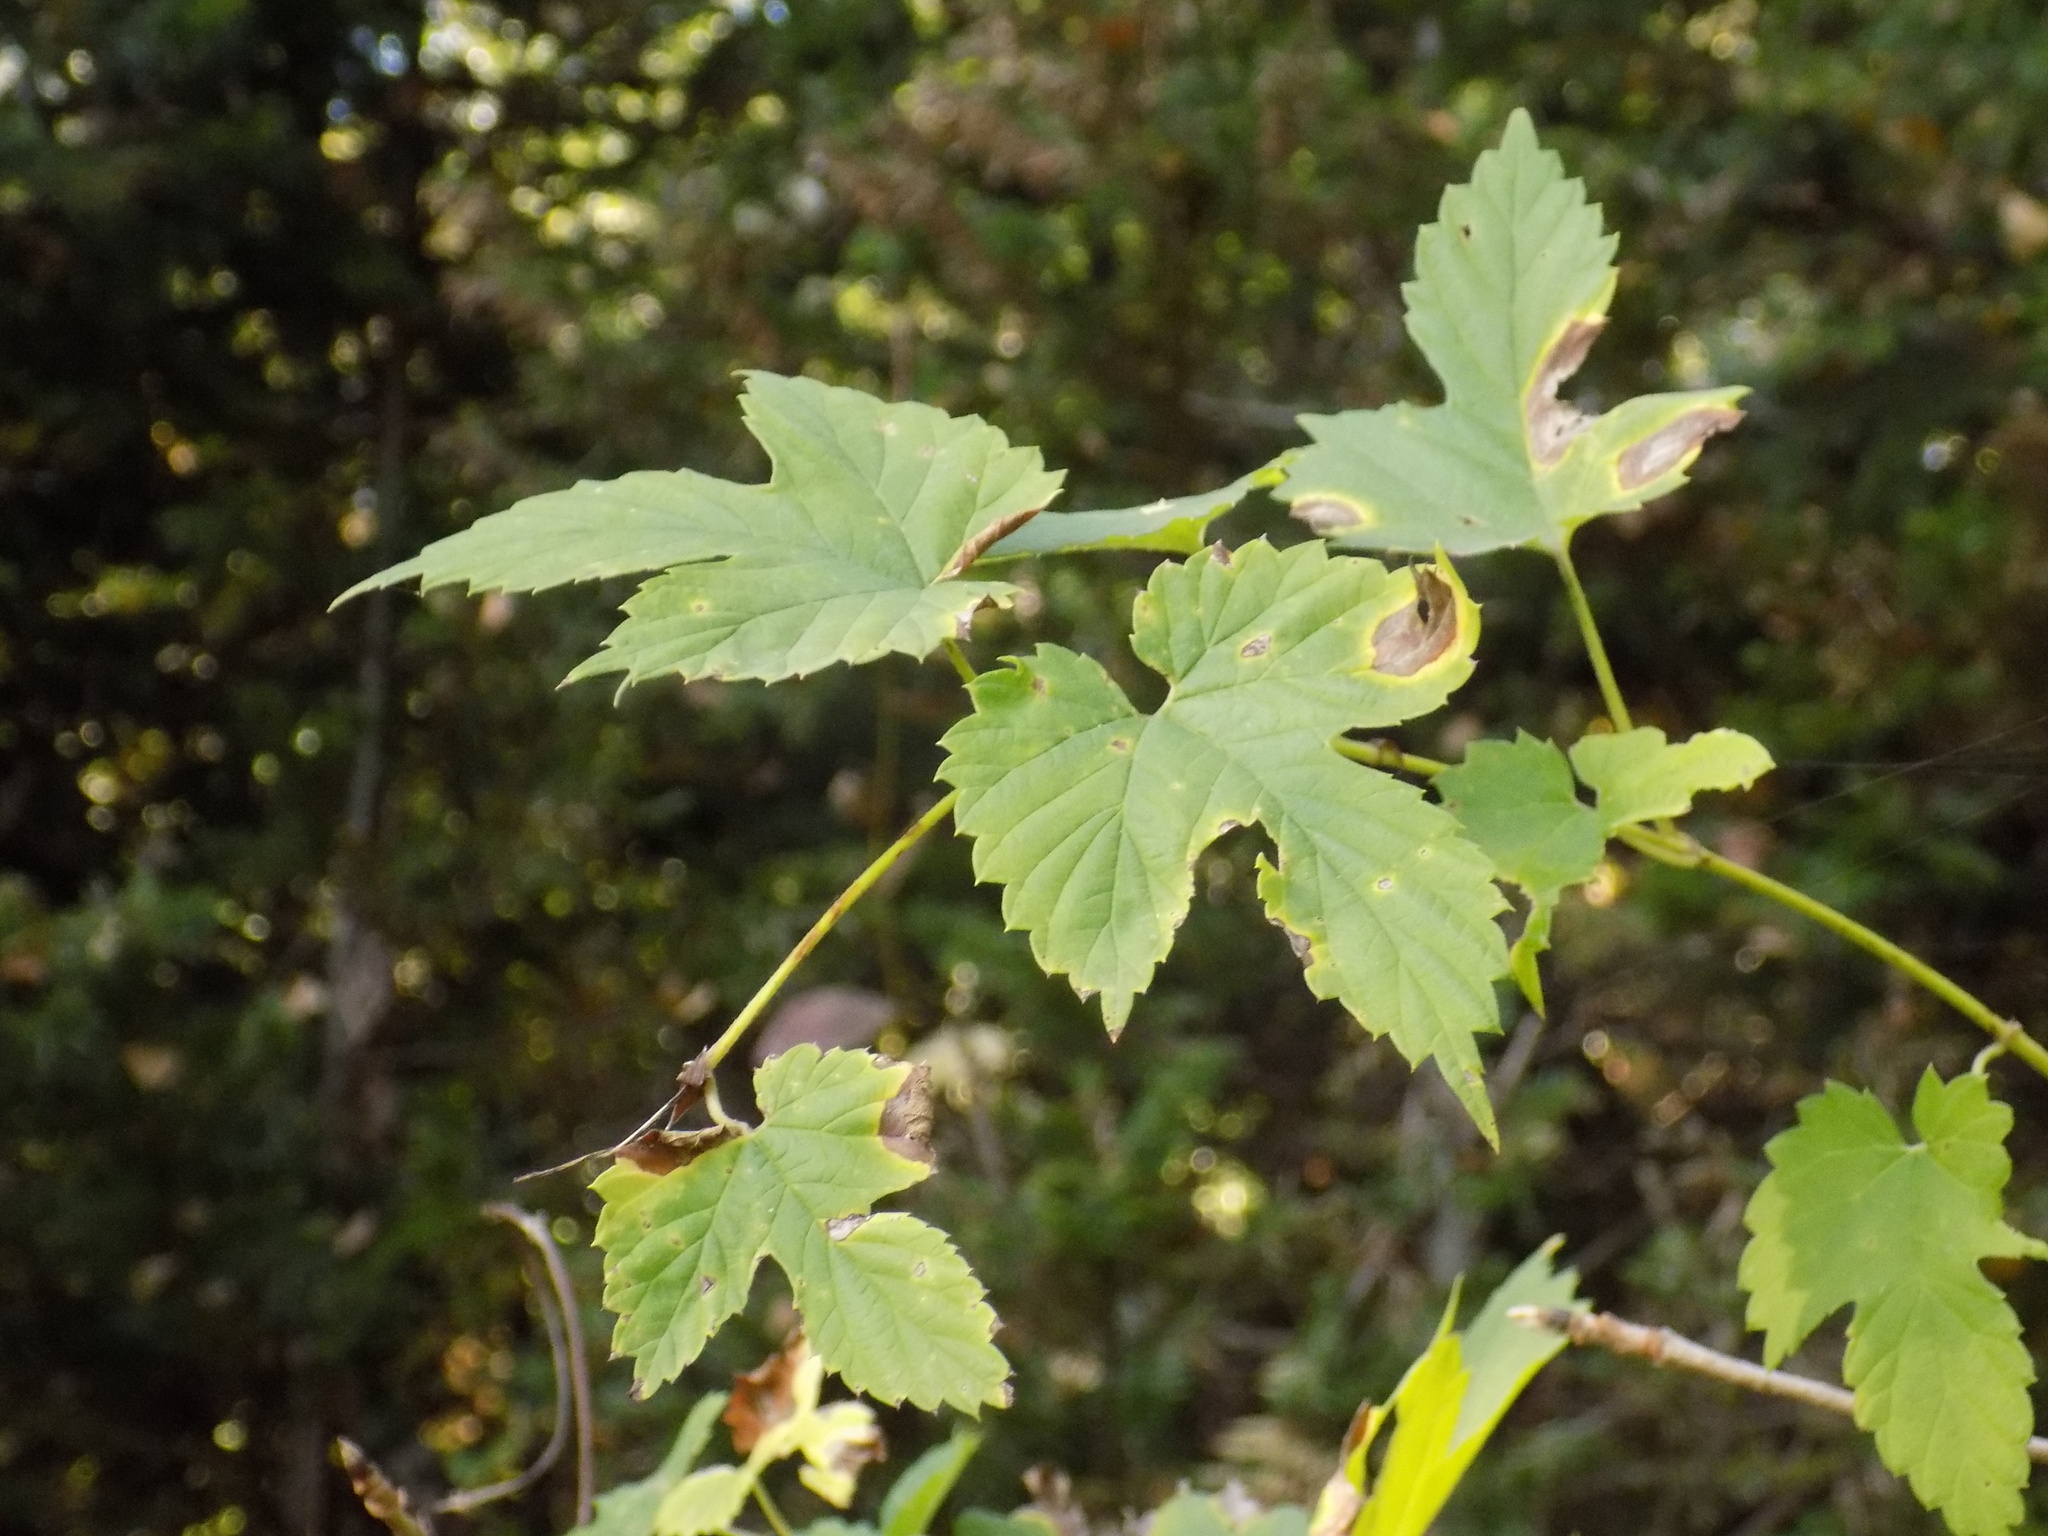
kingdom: Plantae
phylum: Tracheophyta
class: Magnoliopsida
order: Rosales
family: Cannabaceae
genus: Humulus
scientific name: Humulus lupulus
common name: Hop
